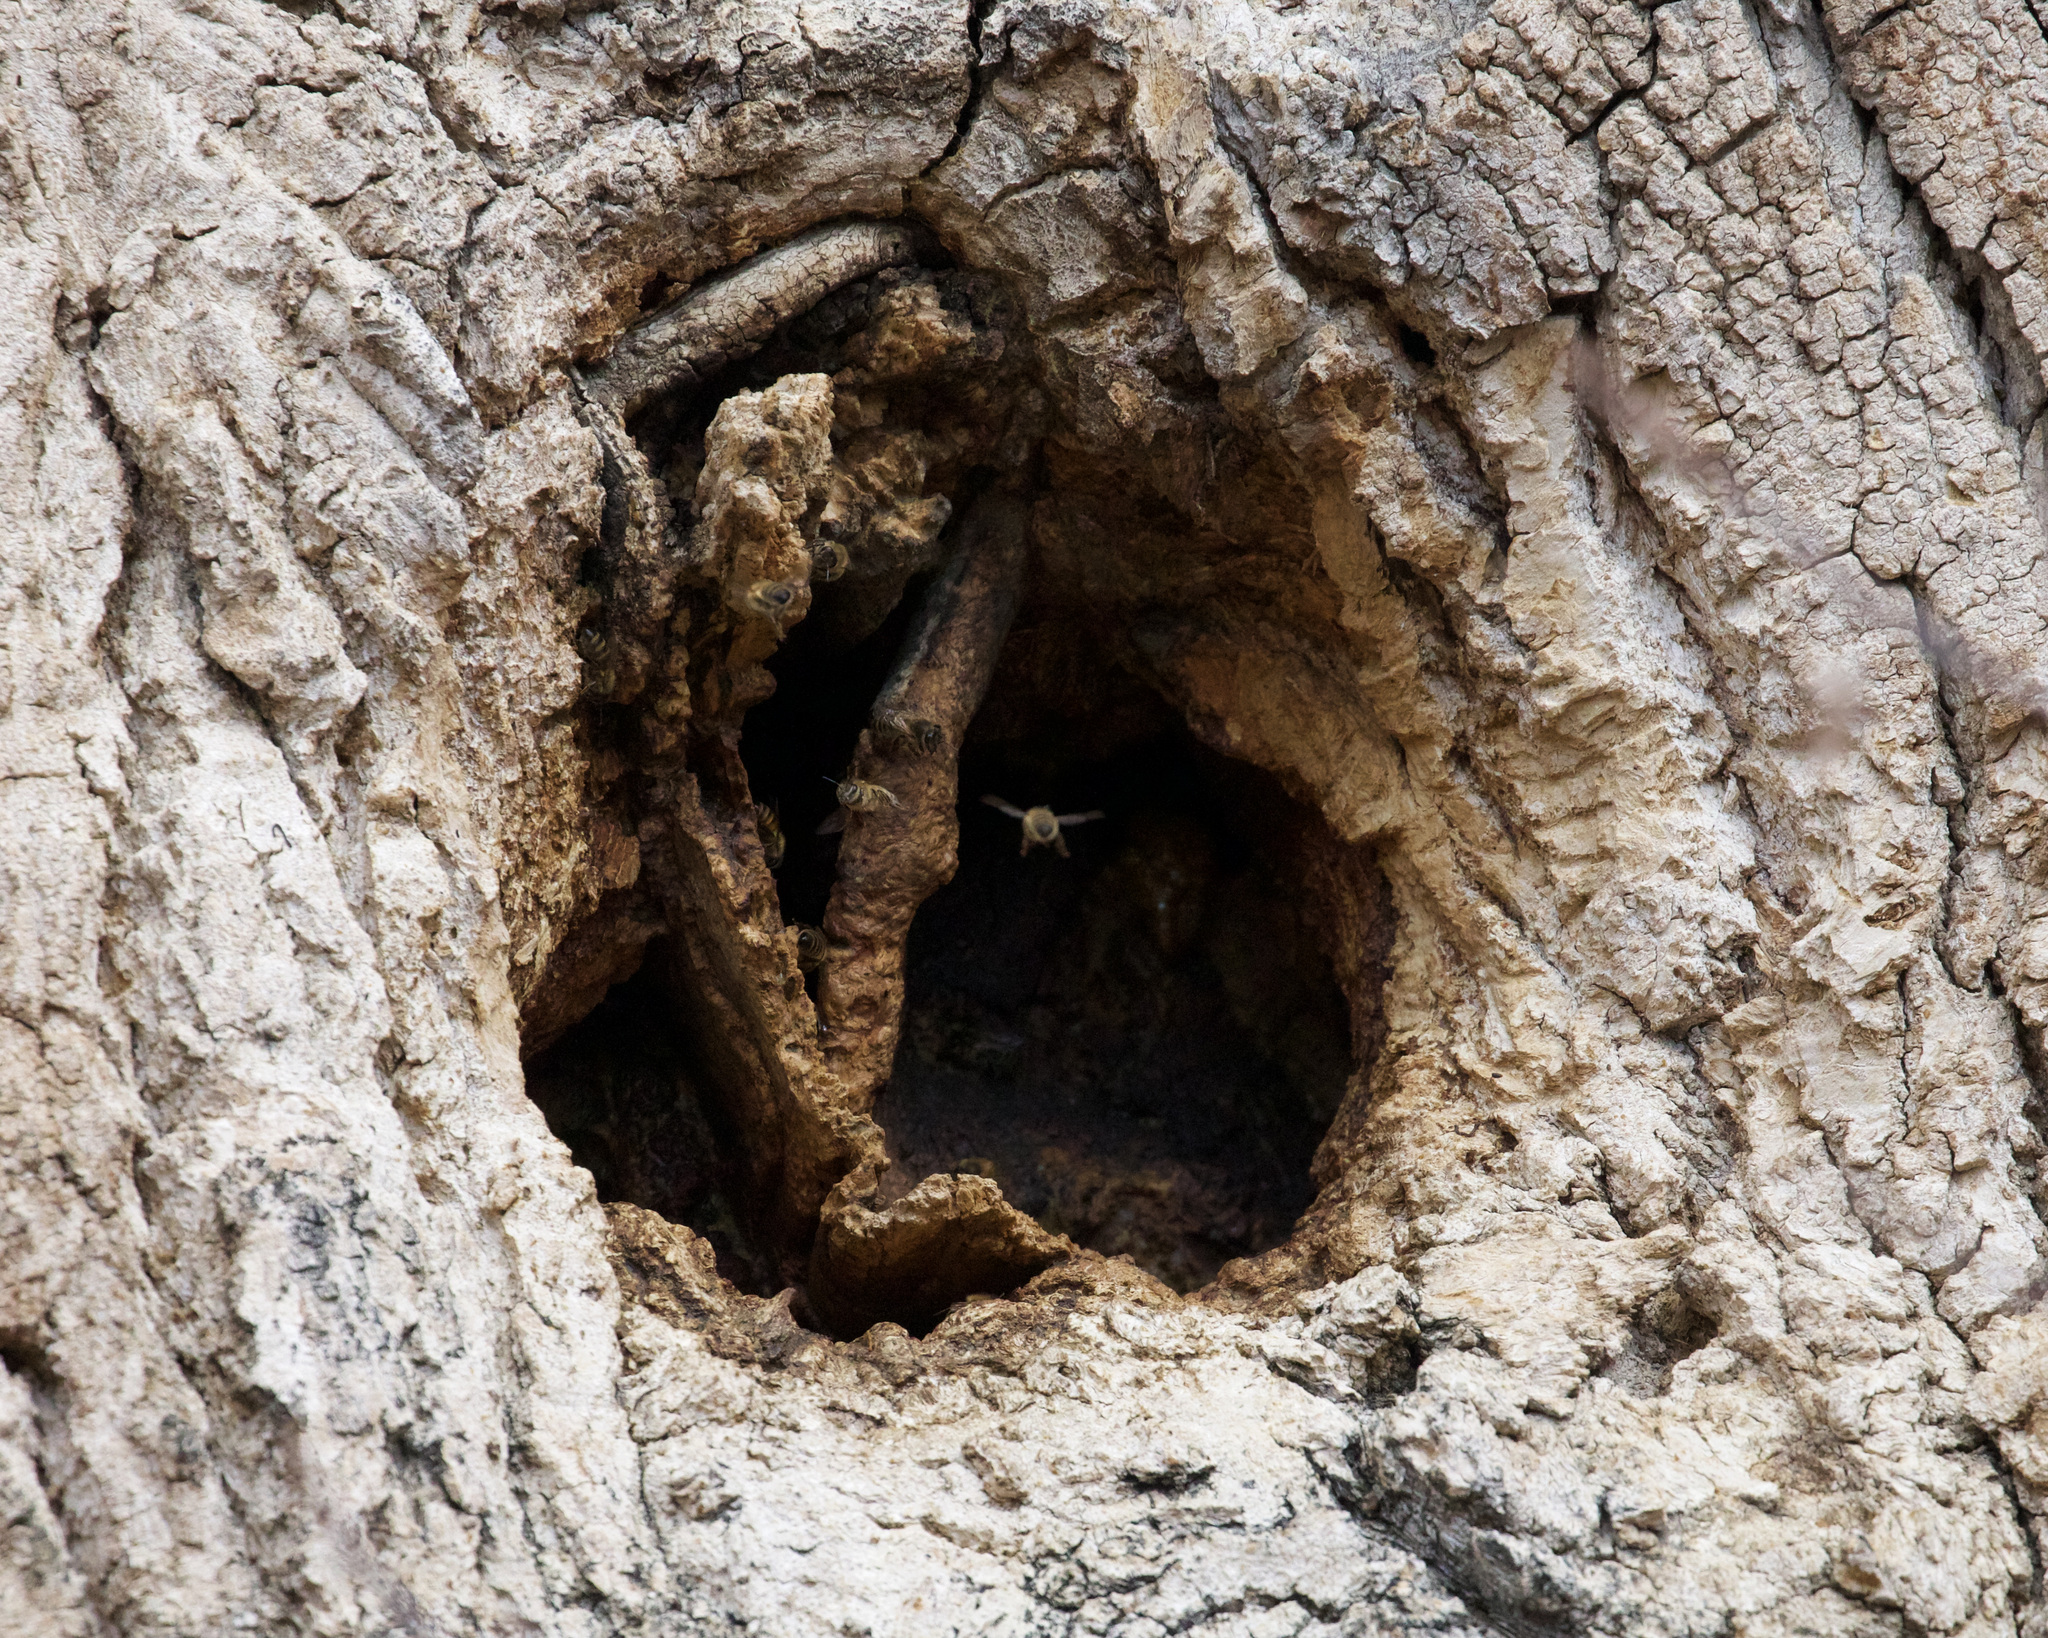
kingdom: Animalia
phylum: Arthropoda
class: Insecta
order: Hymenoptera
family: Apidae
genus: Apis
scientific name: Apis mellifera
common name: Honey bee
